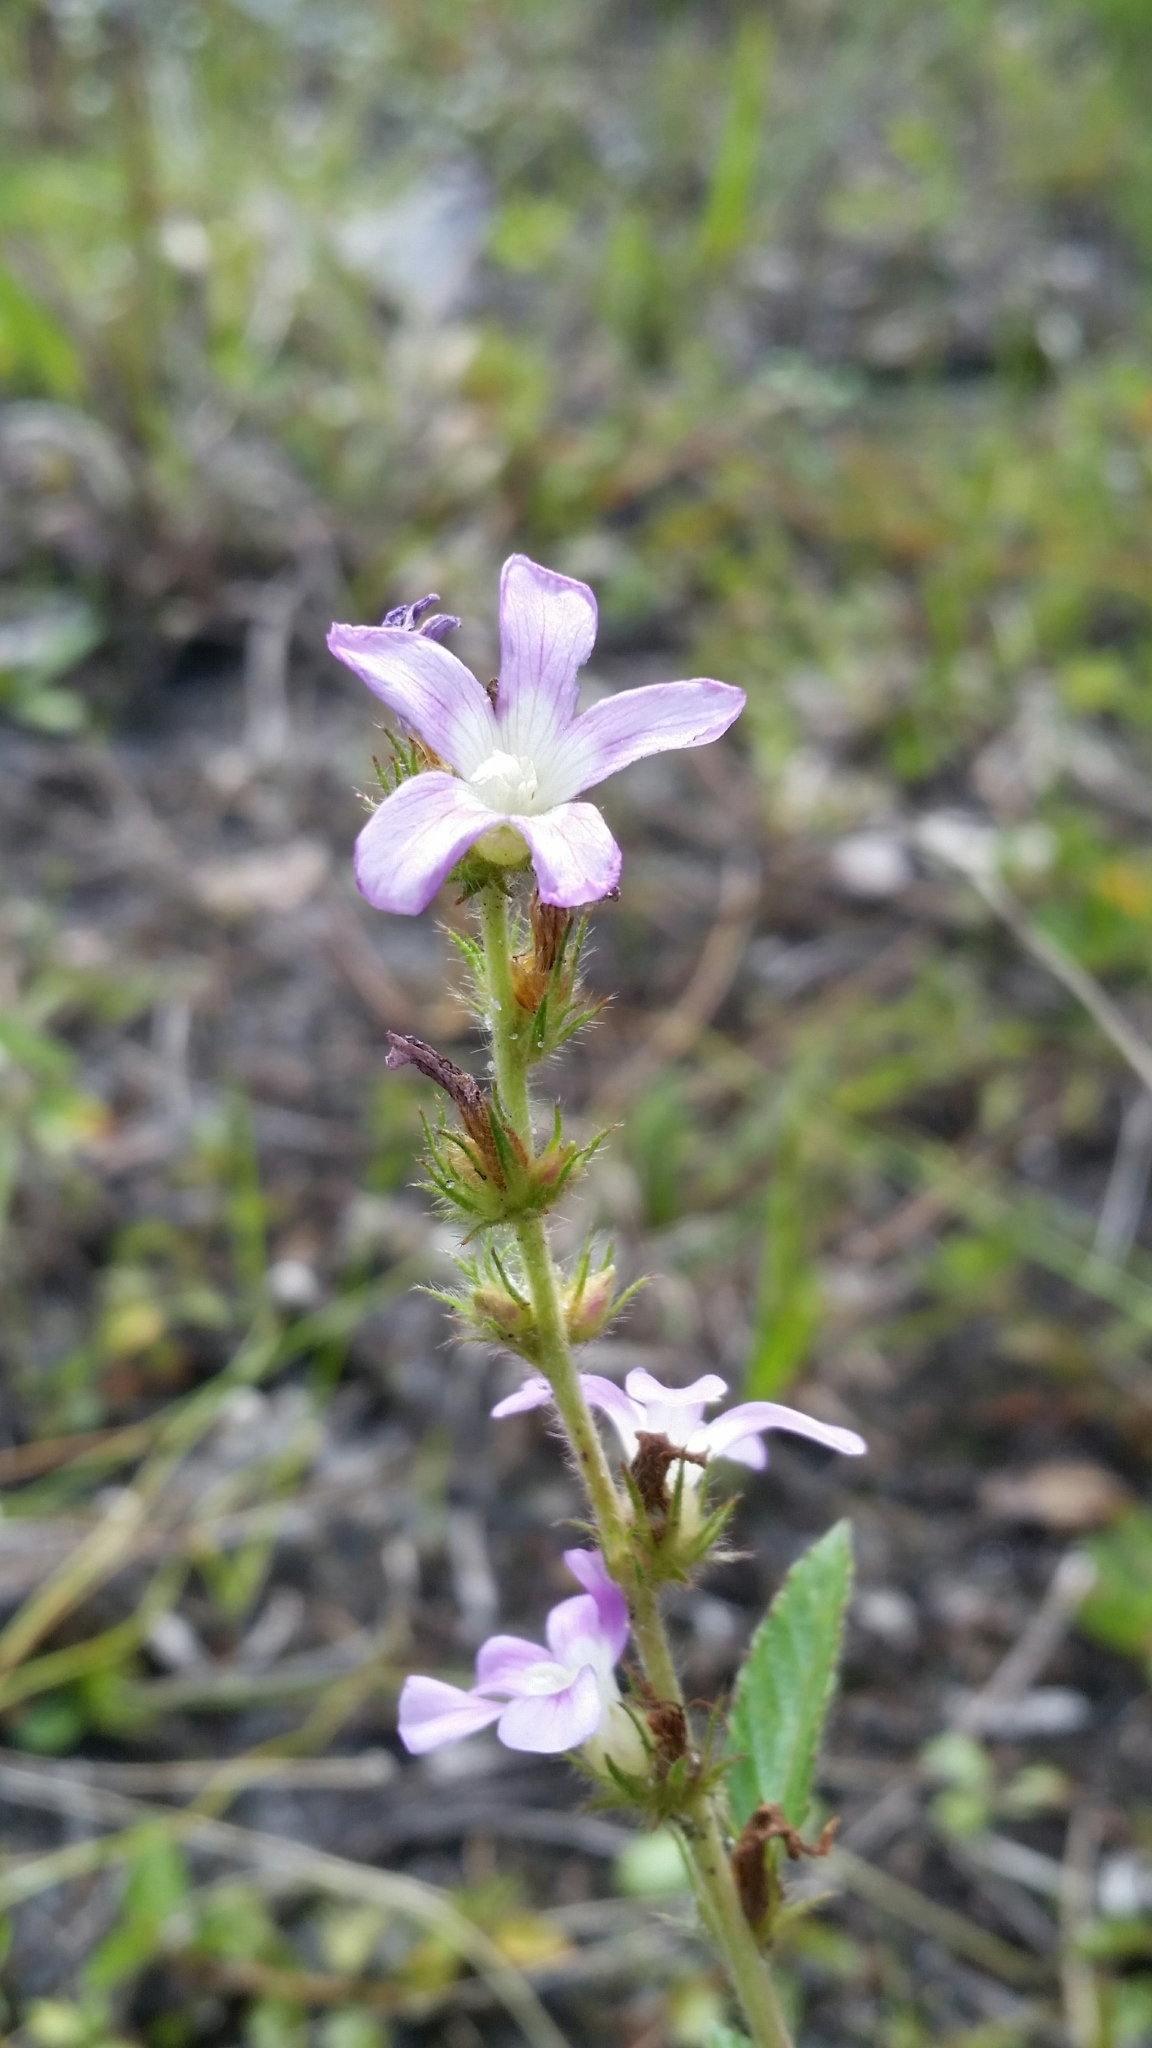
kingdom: Plantae
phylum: Tracheophyta
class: Magnoliopsida
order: Malvales
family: Malvaceae
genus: Melochia
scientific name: Melochia spicata
